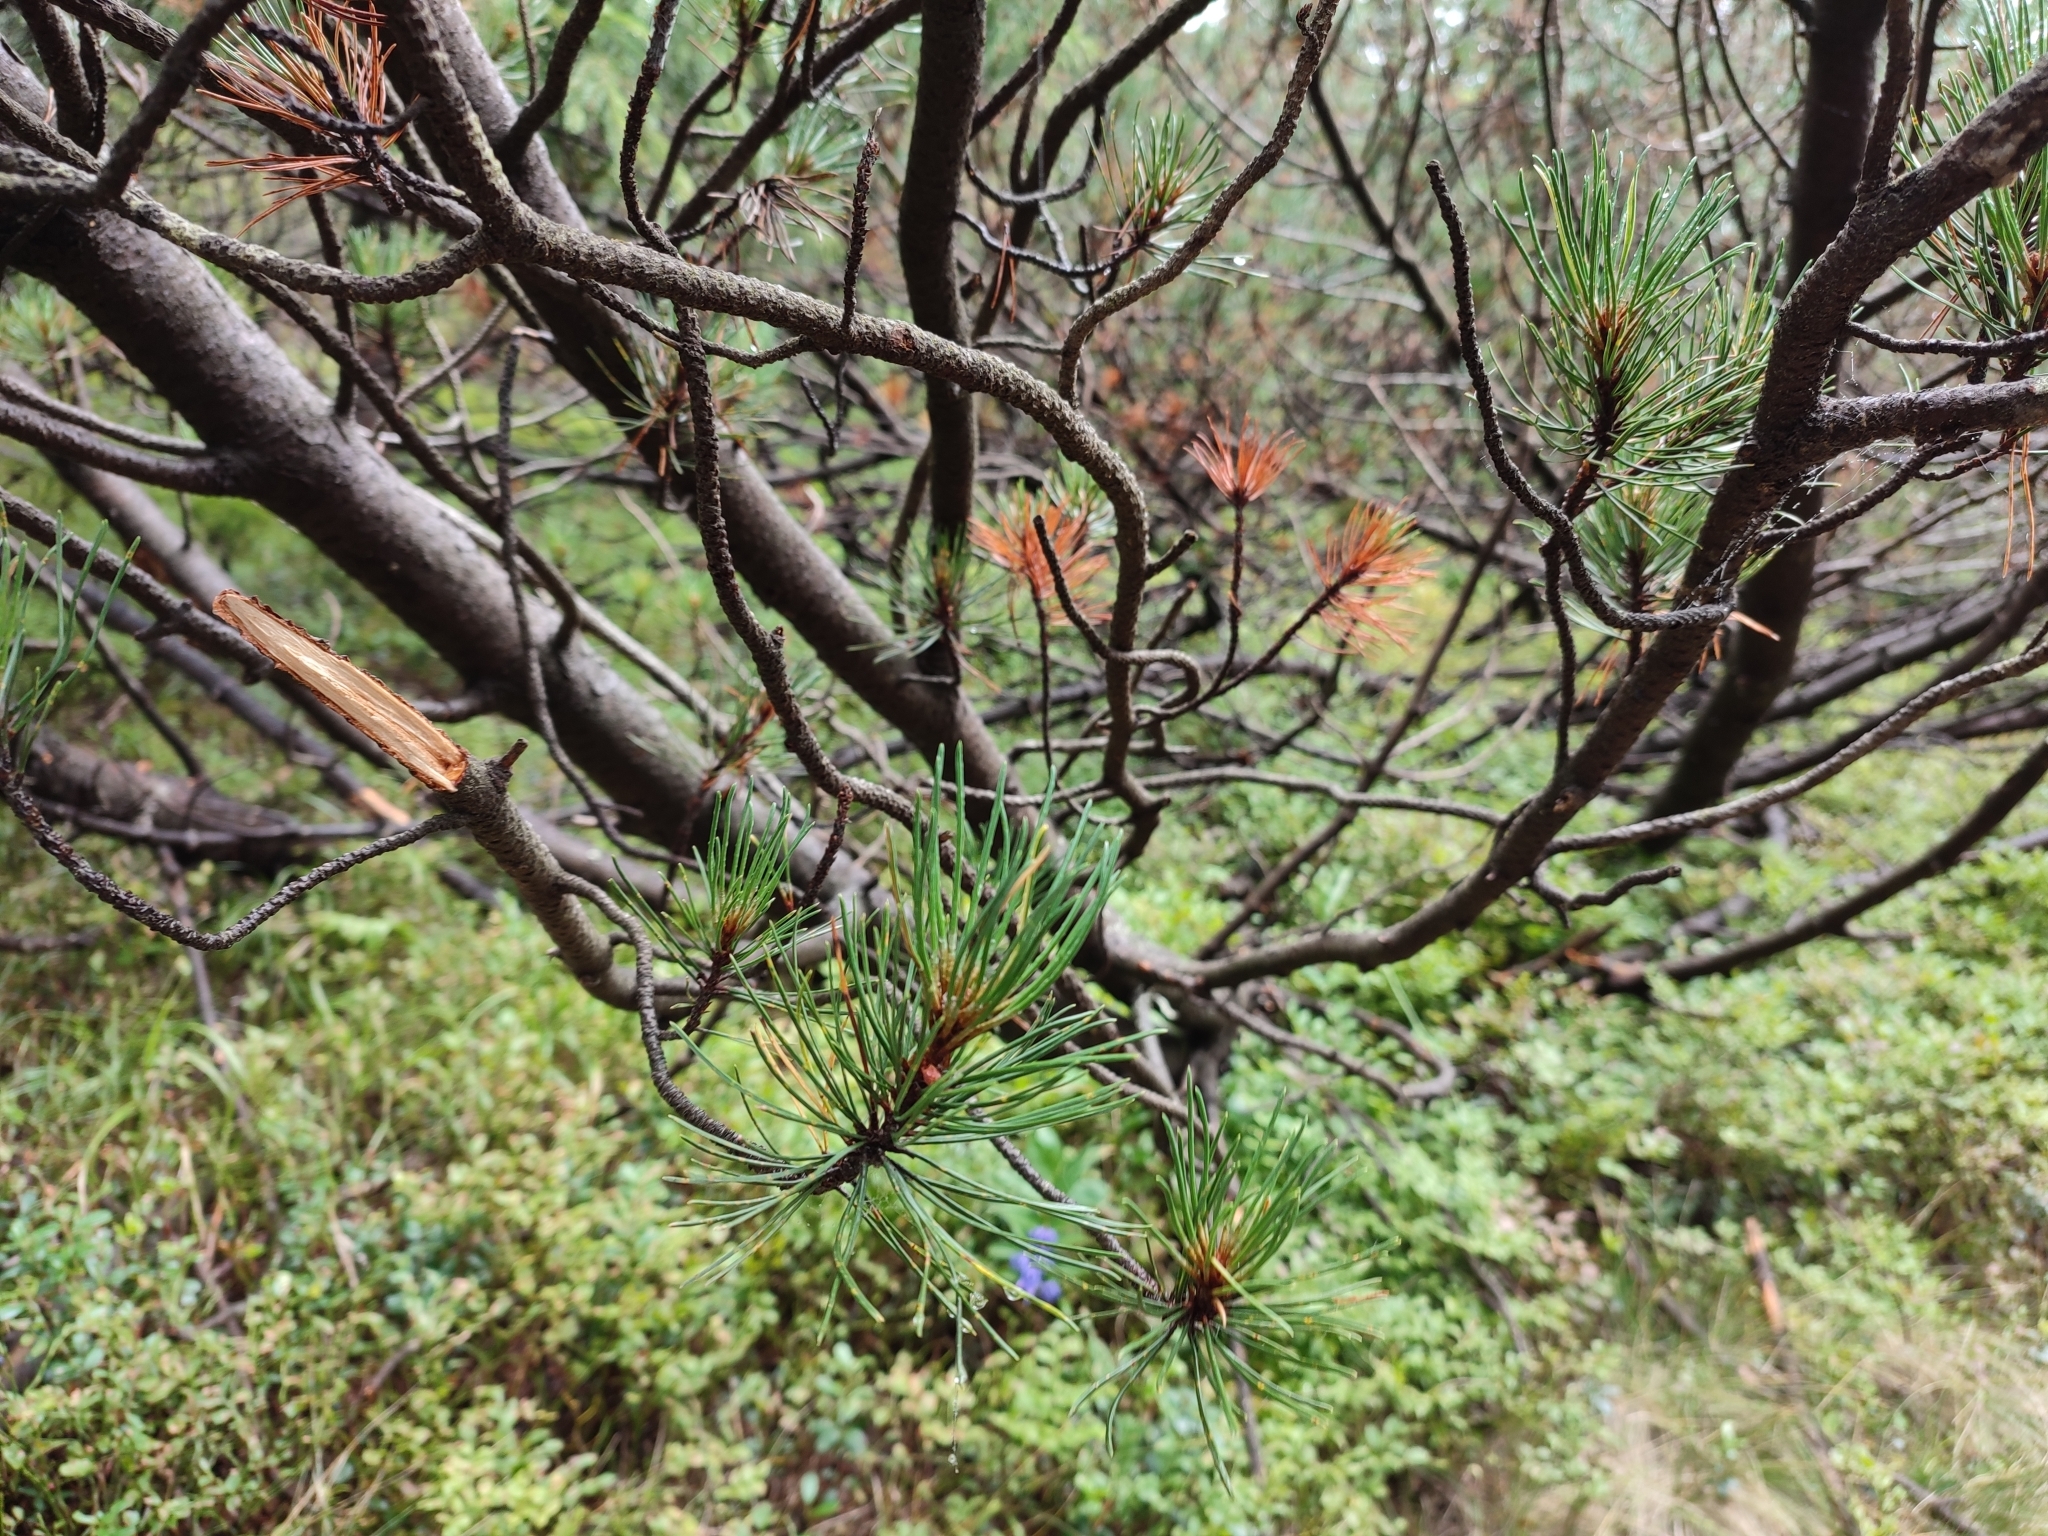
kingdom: Plantae
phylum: Tracheophyta
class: Pinopsida
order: Pinales
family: Pinaceae
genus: Pinus
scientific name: Pinus mugo
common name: Mugo pine
